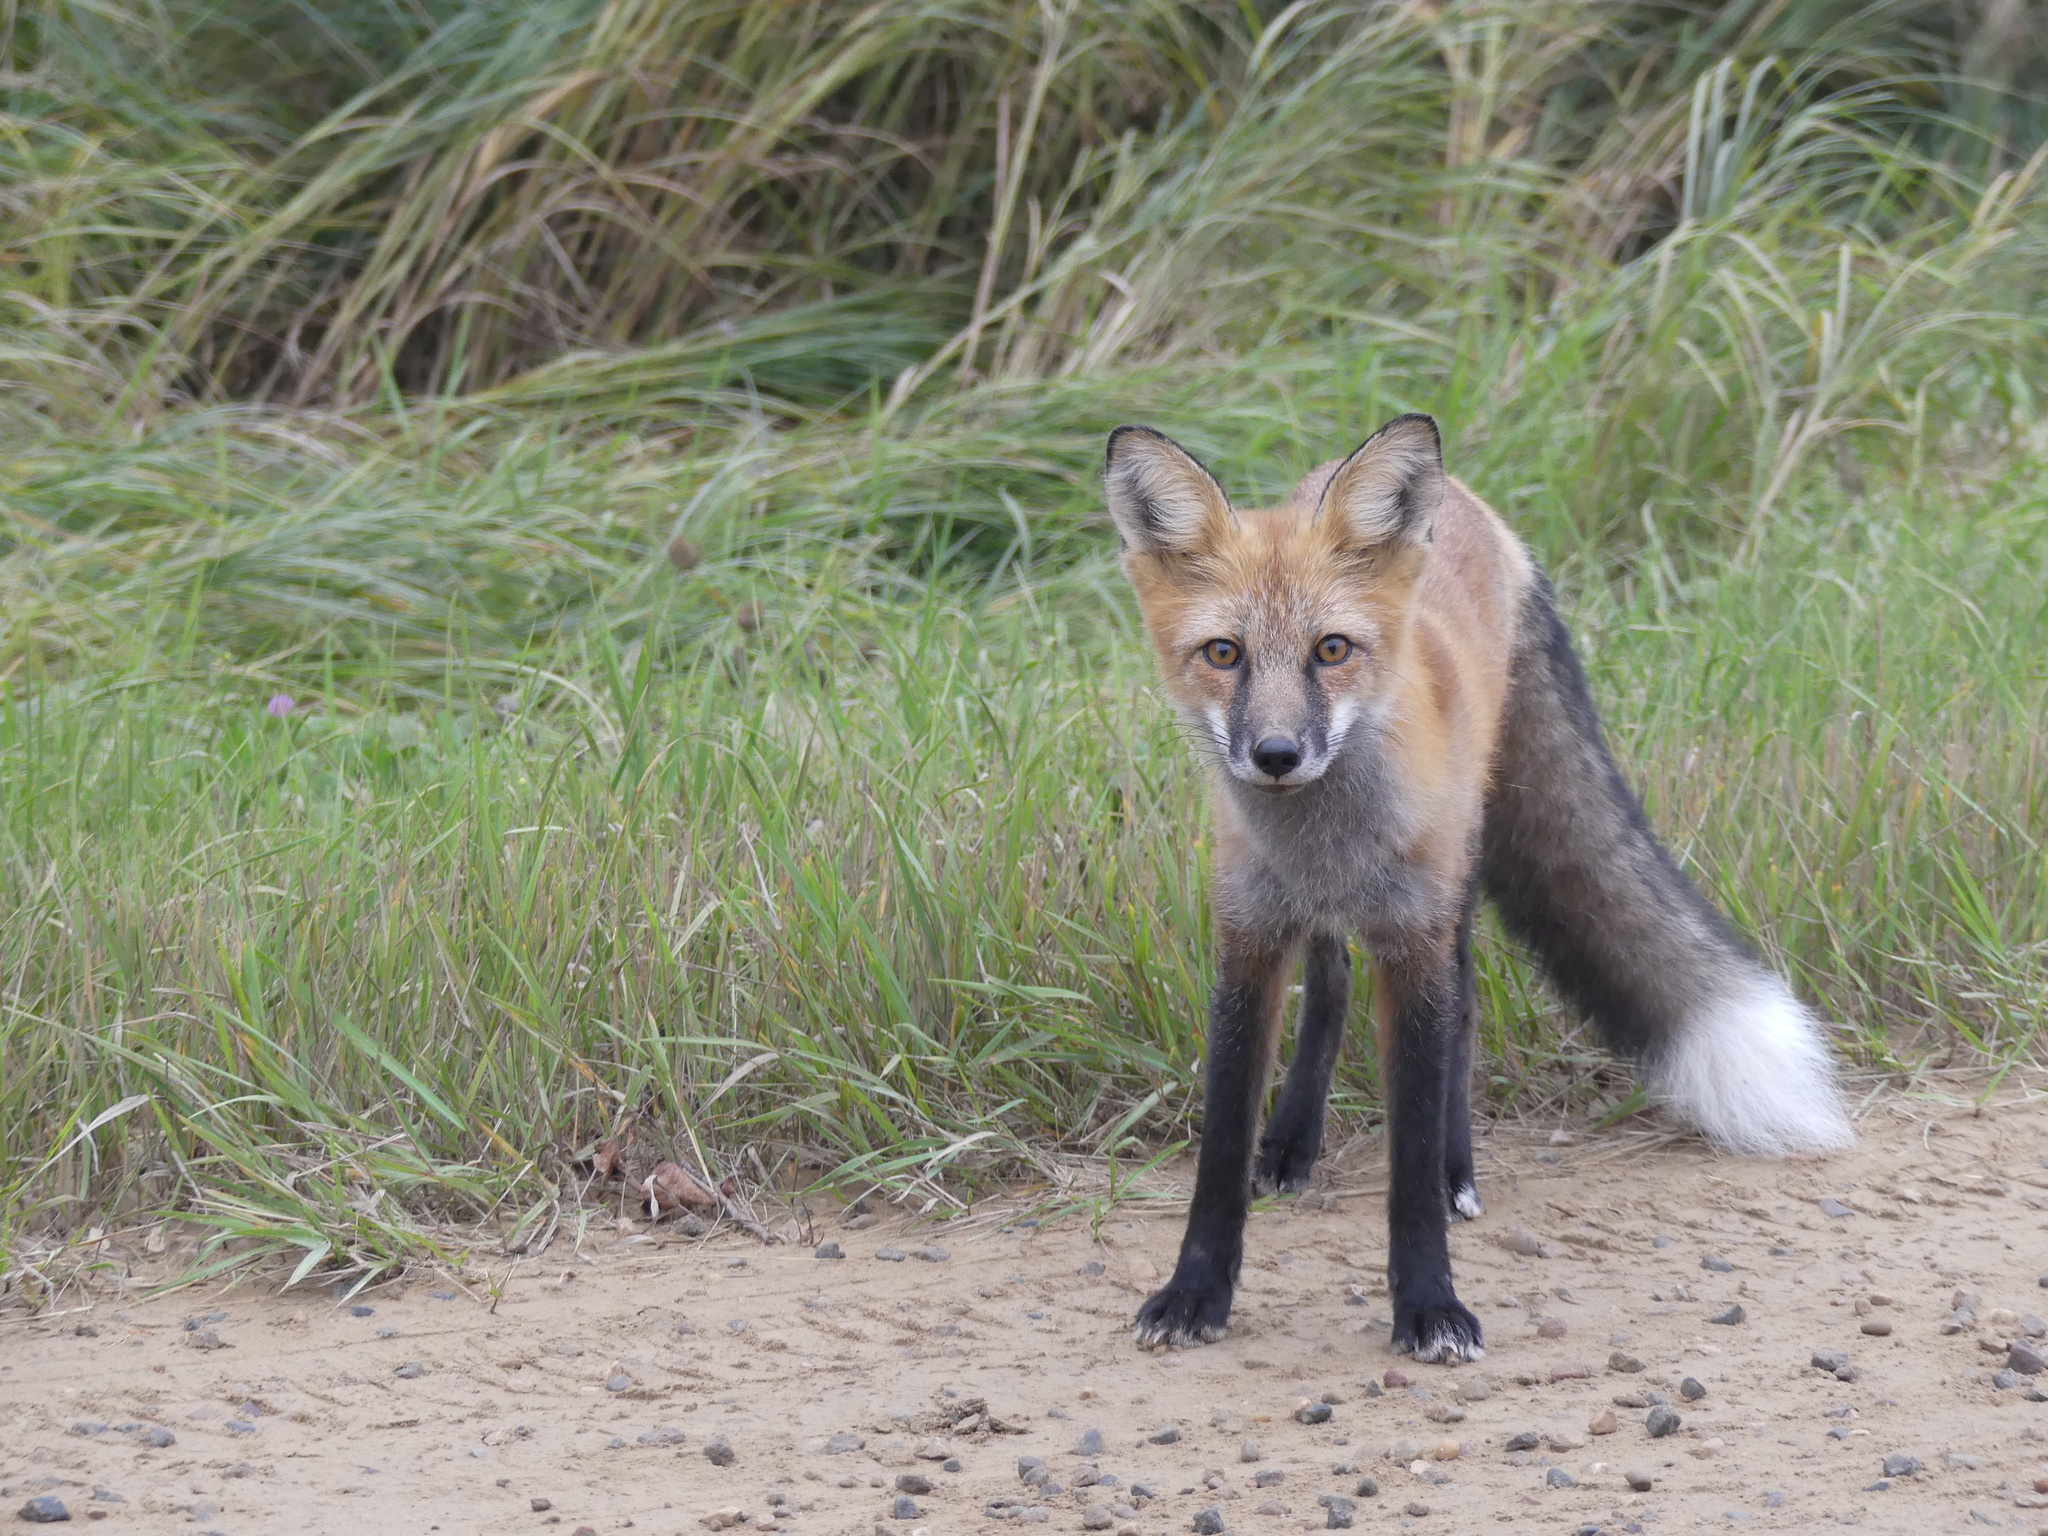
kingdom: Animalia
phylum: Chordata
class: Mammalia
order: Carnivora
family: Canidae
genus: Vulpes
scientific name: Vulpes vulpes
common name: Red fox
